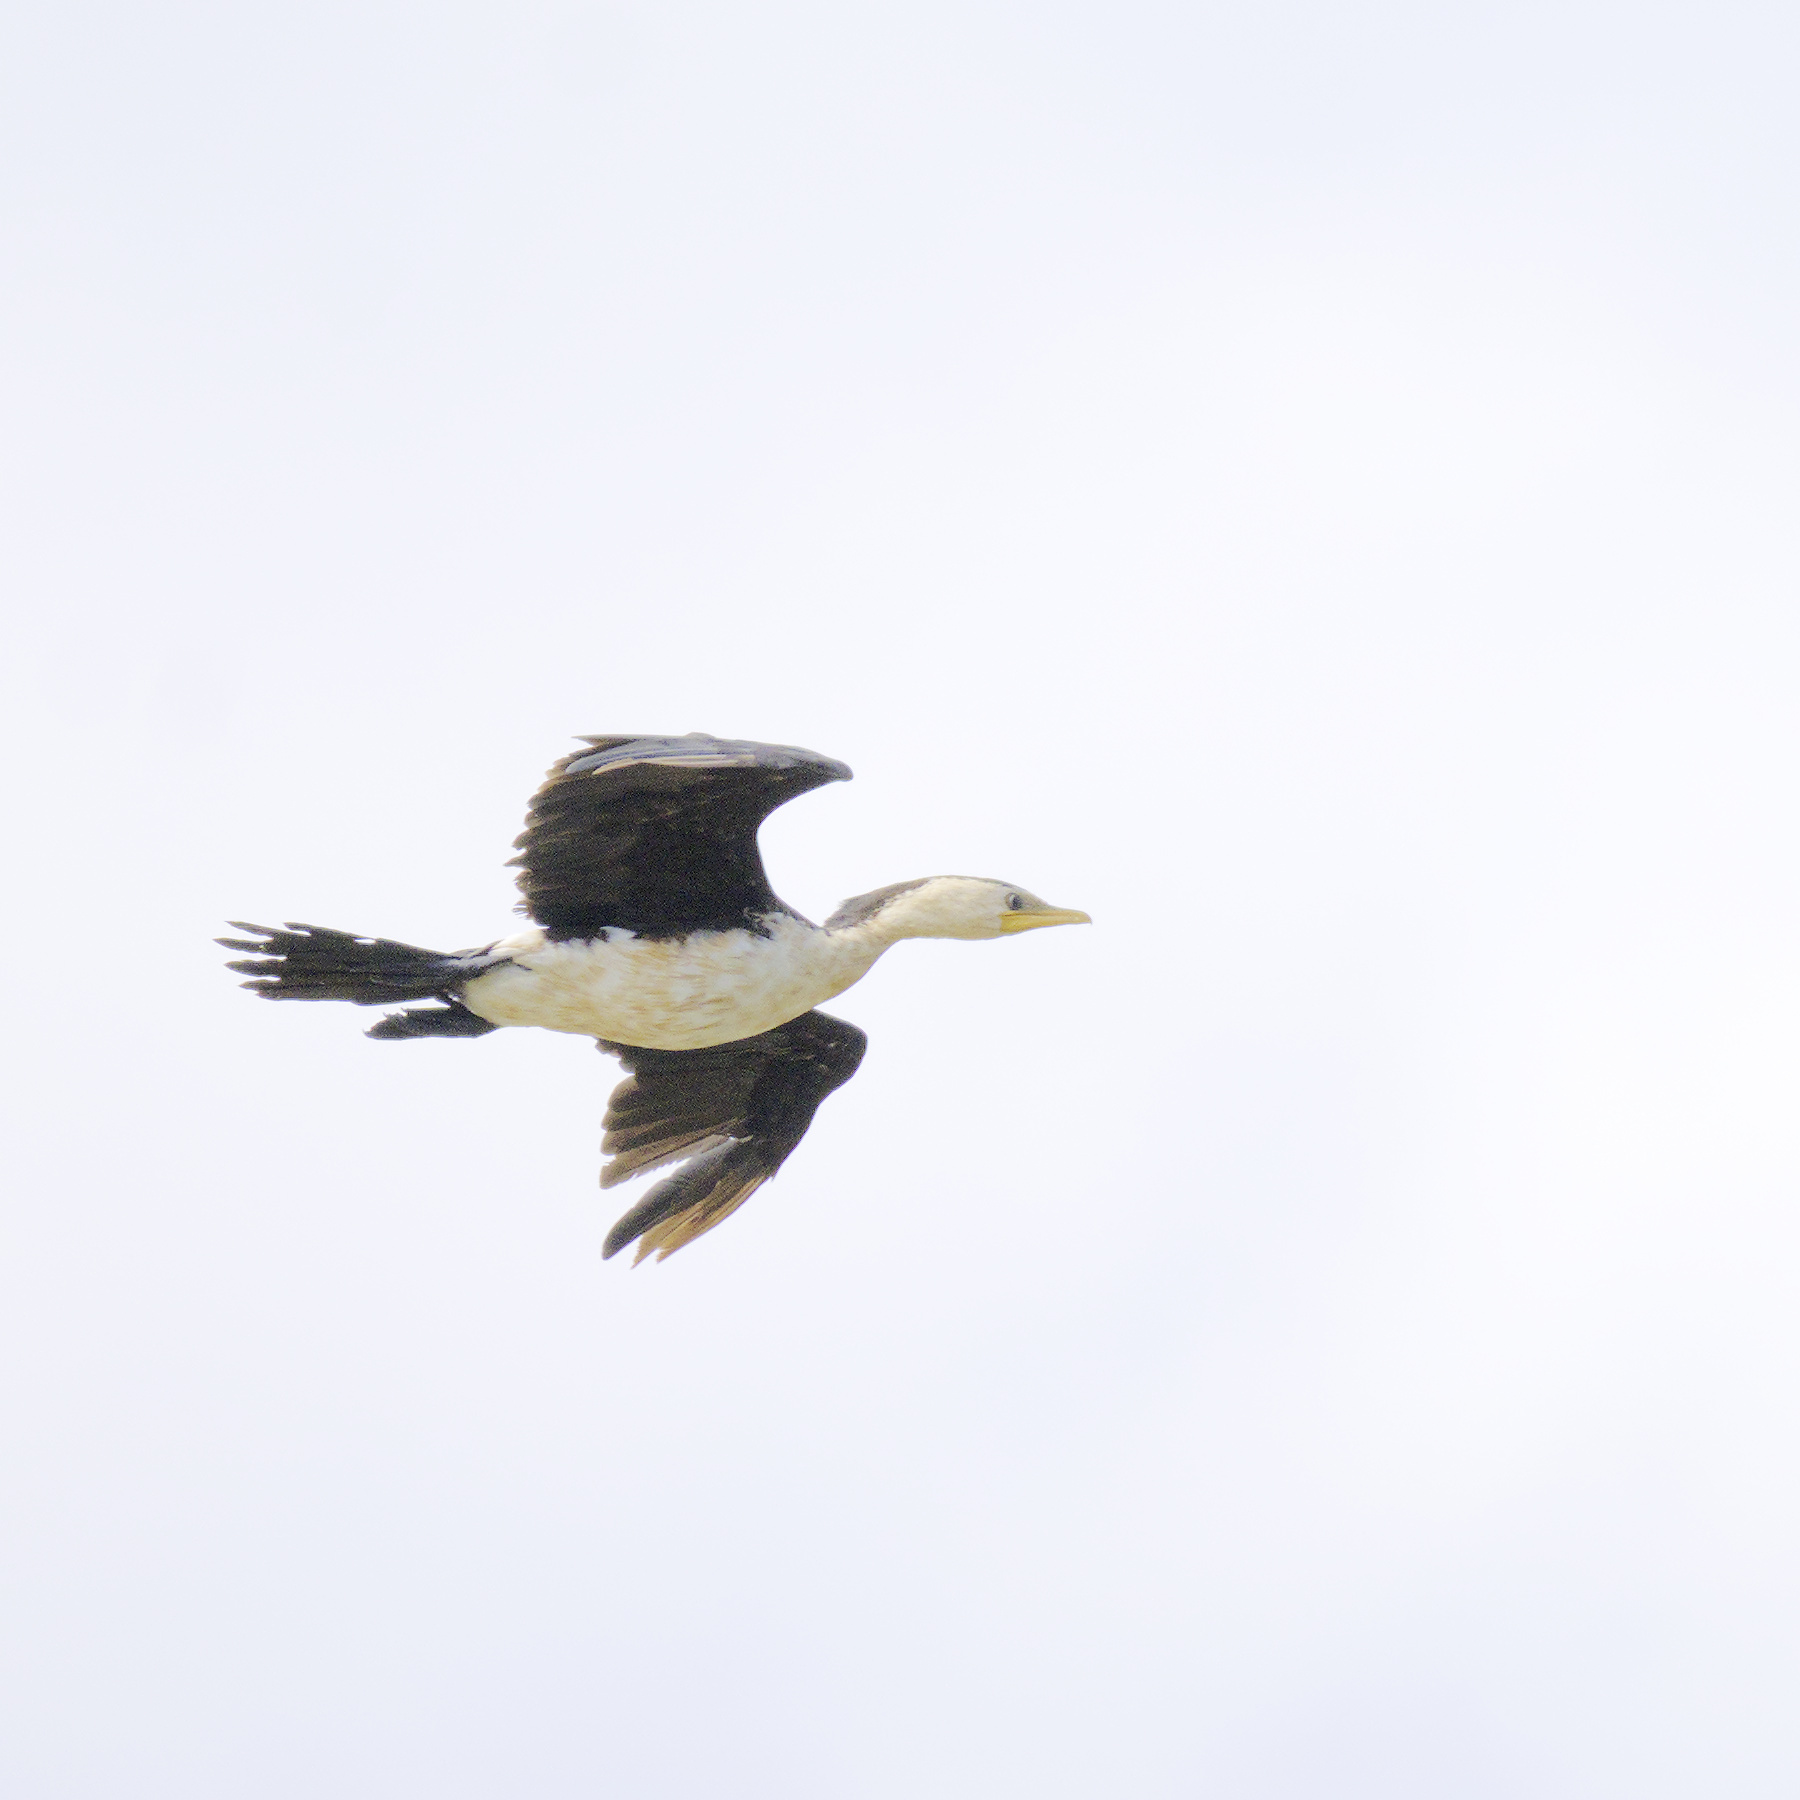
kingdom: Animalia
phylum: Chordata
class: Aves
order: Suliformes
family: Phalacrocoracidae
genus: Microcarbo
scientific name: Microcarbo melanoleucos
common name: Little pied cormorant
